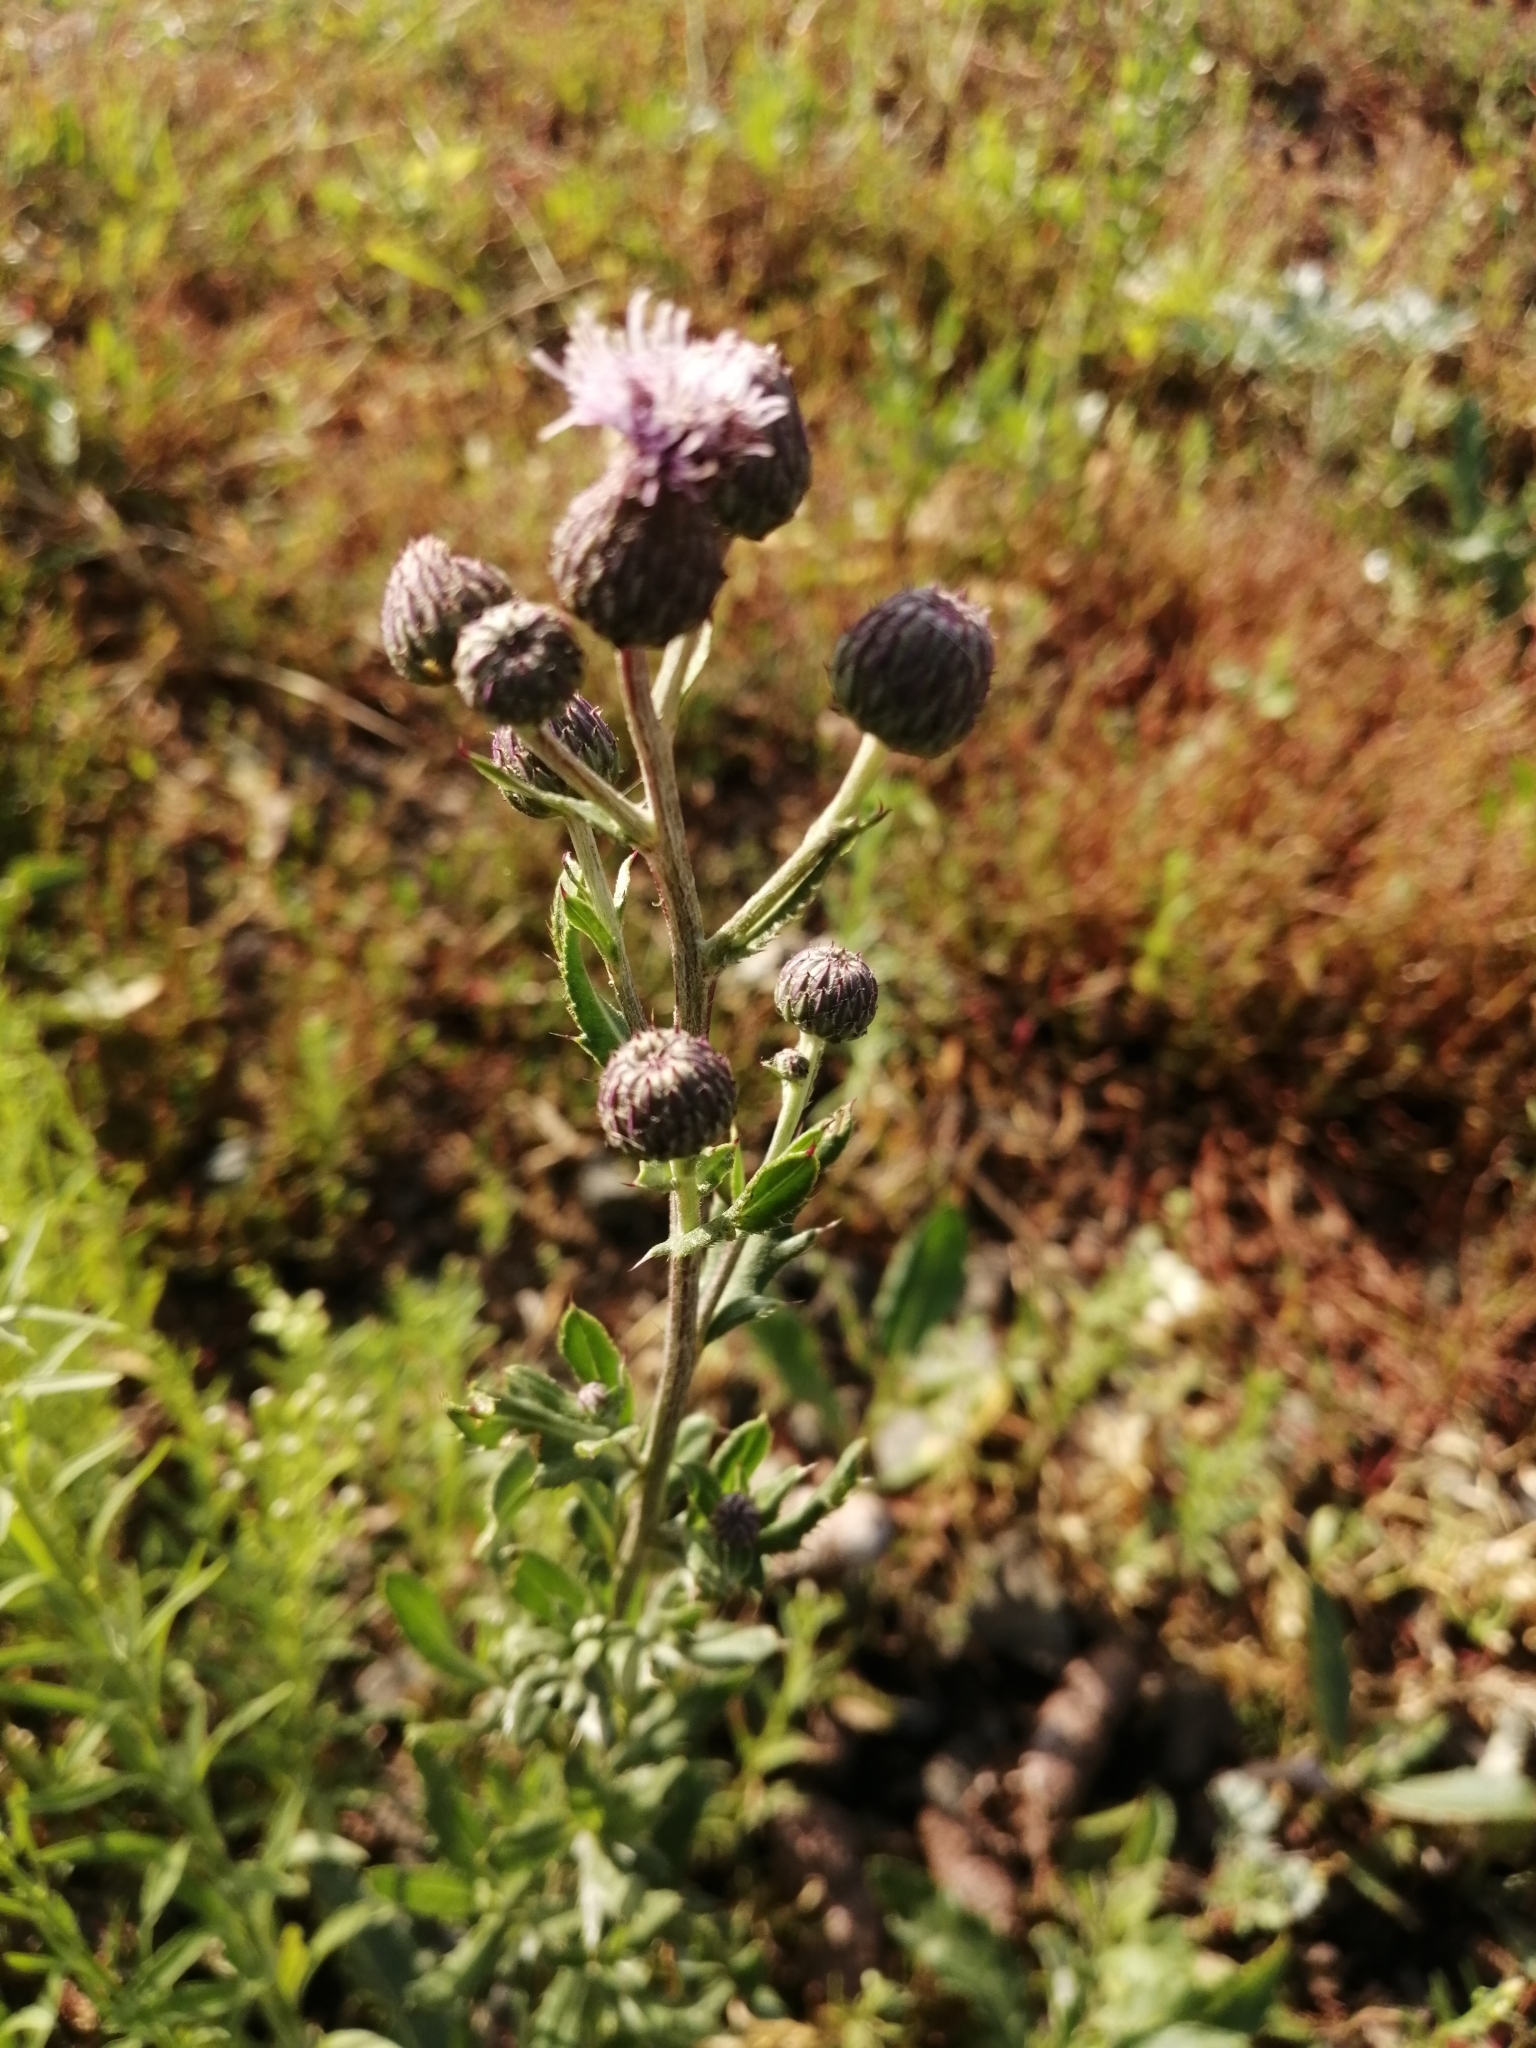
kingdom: Plantae
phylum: Tracheophyta
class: Magnoliopsida
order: Asterales
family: Asteraceae
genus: Cirsium
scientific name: Cirsium arvense
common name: Creeping thistle
